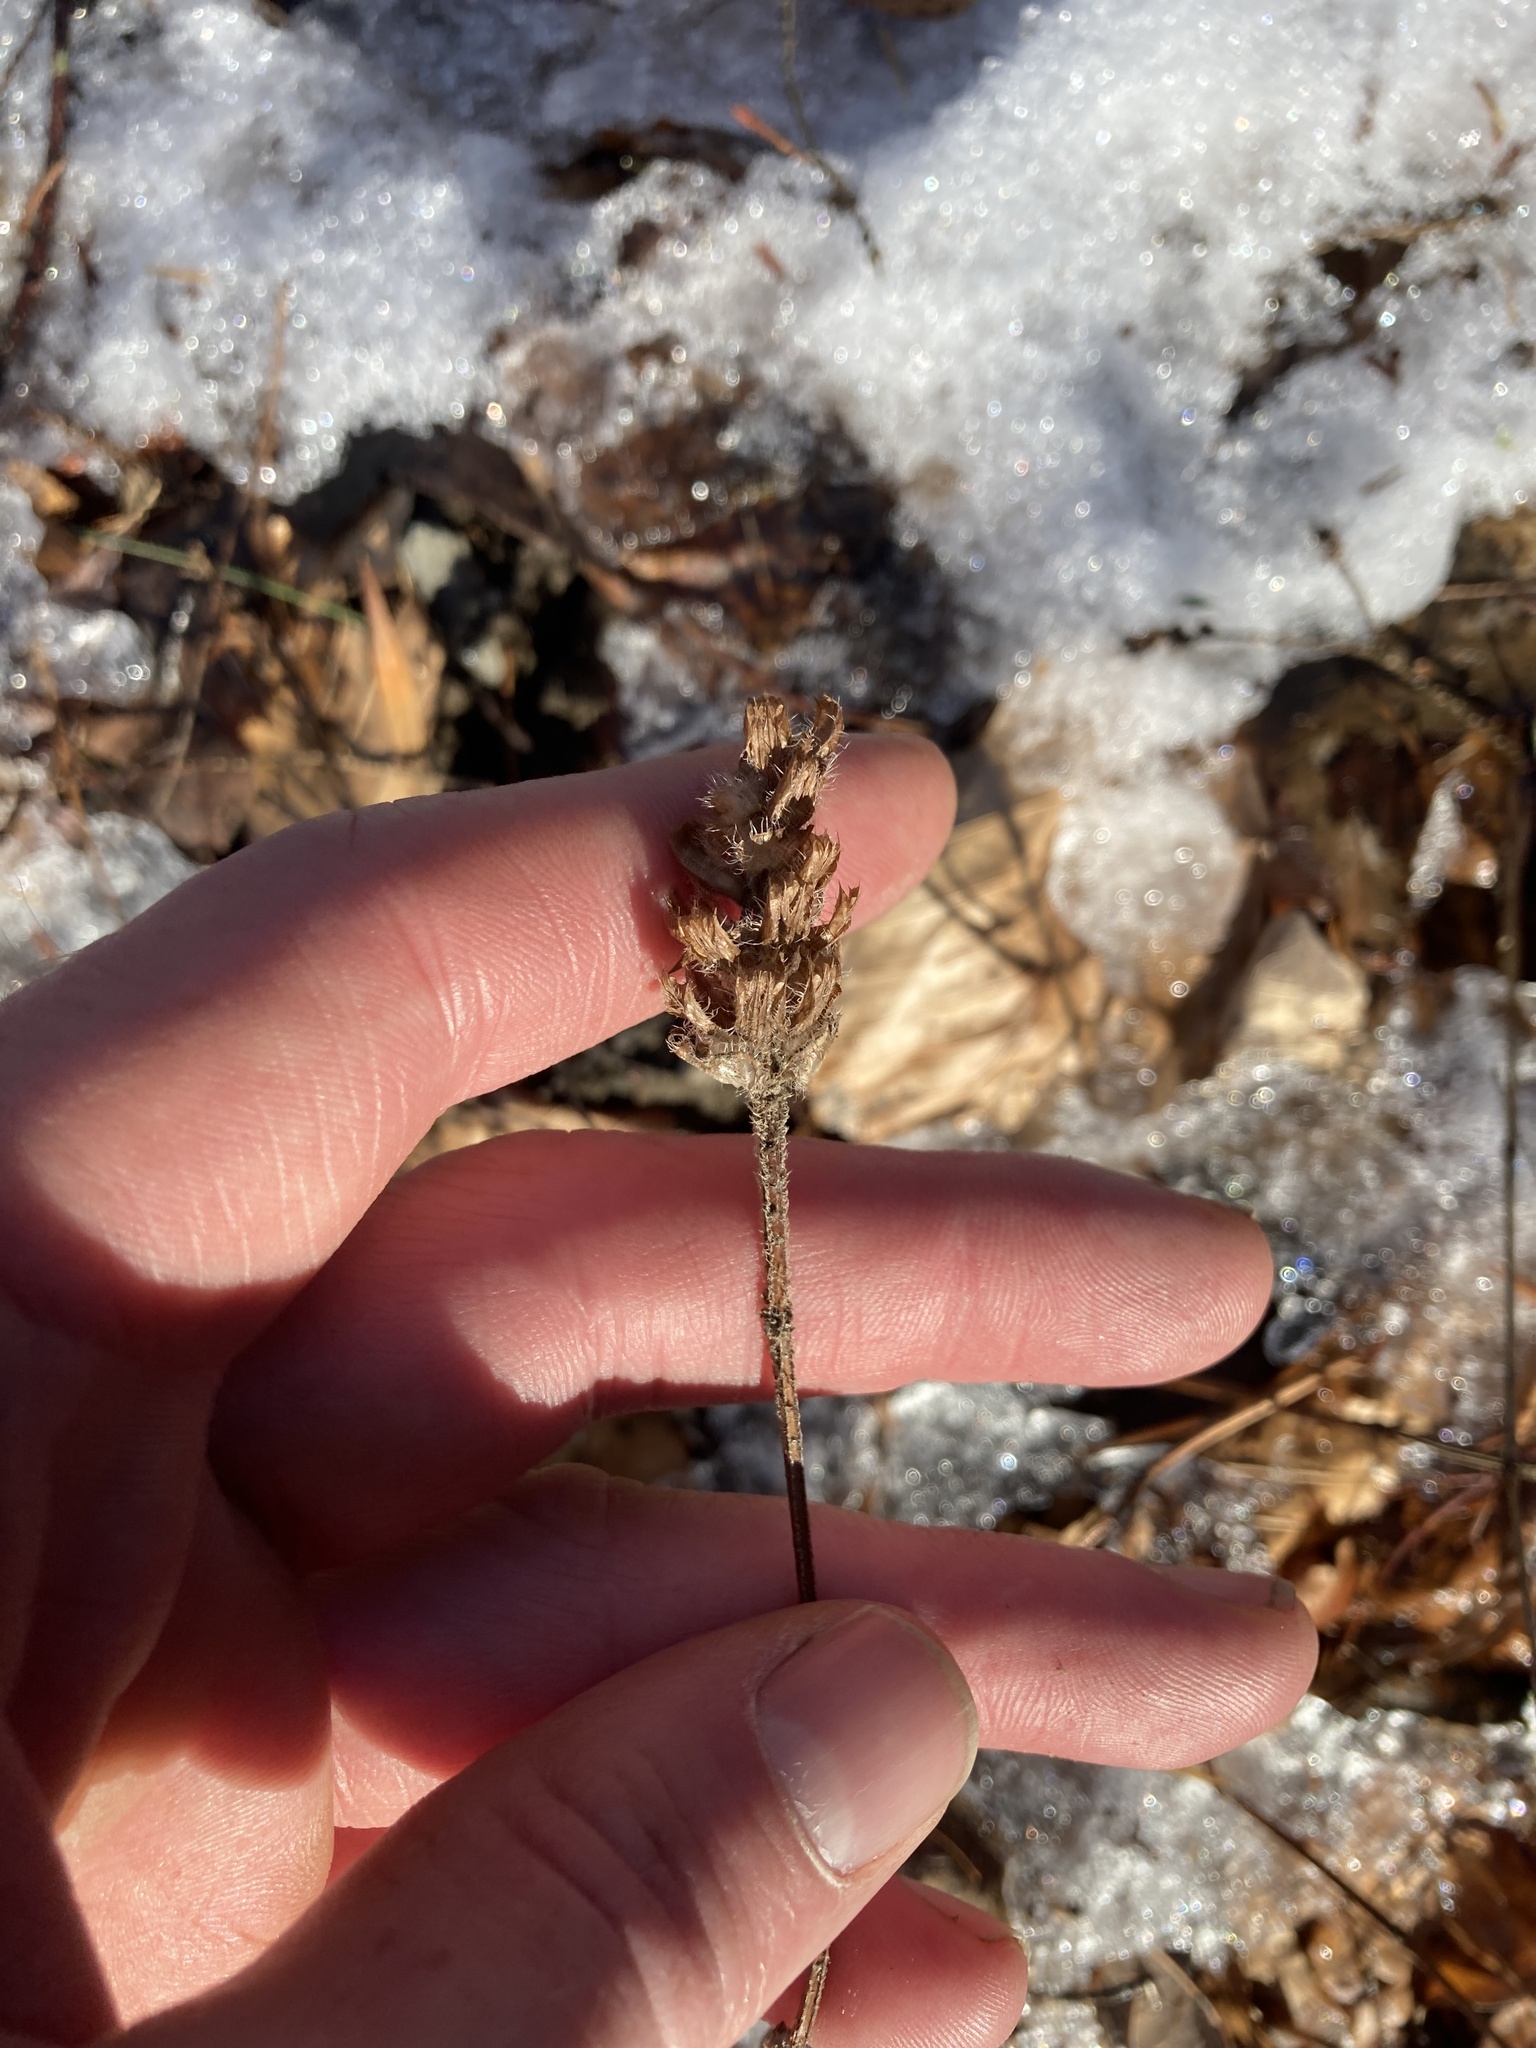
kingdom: Plantae
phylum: Tracheophyta
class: Magnoliopsida
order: Lamiales
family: Lamiaceae
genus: Prunella
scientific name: Prunella vulgaris
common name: Heal-all
